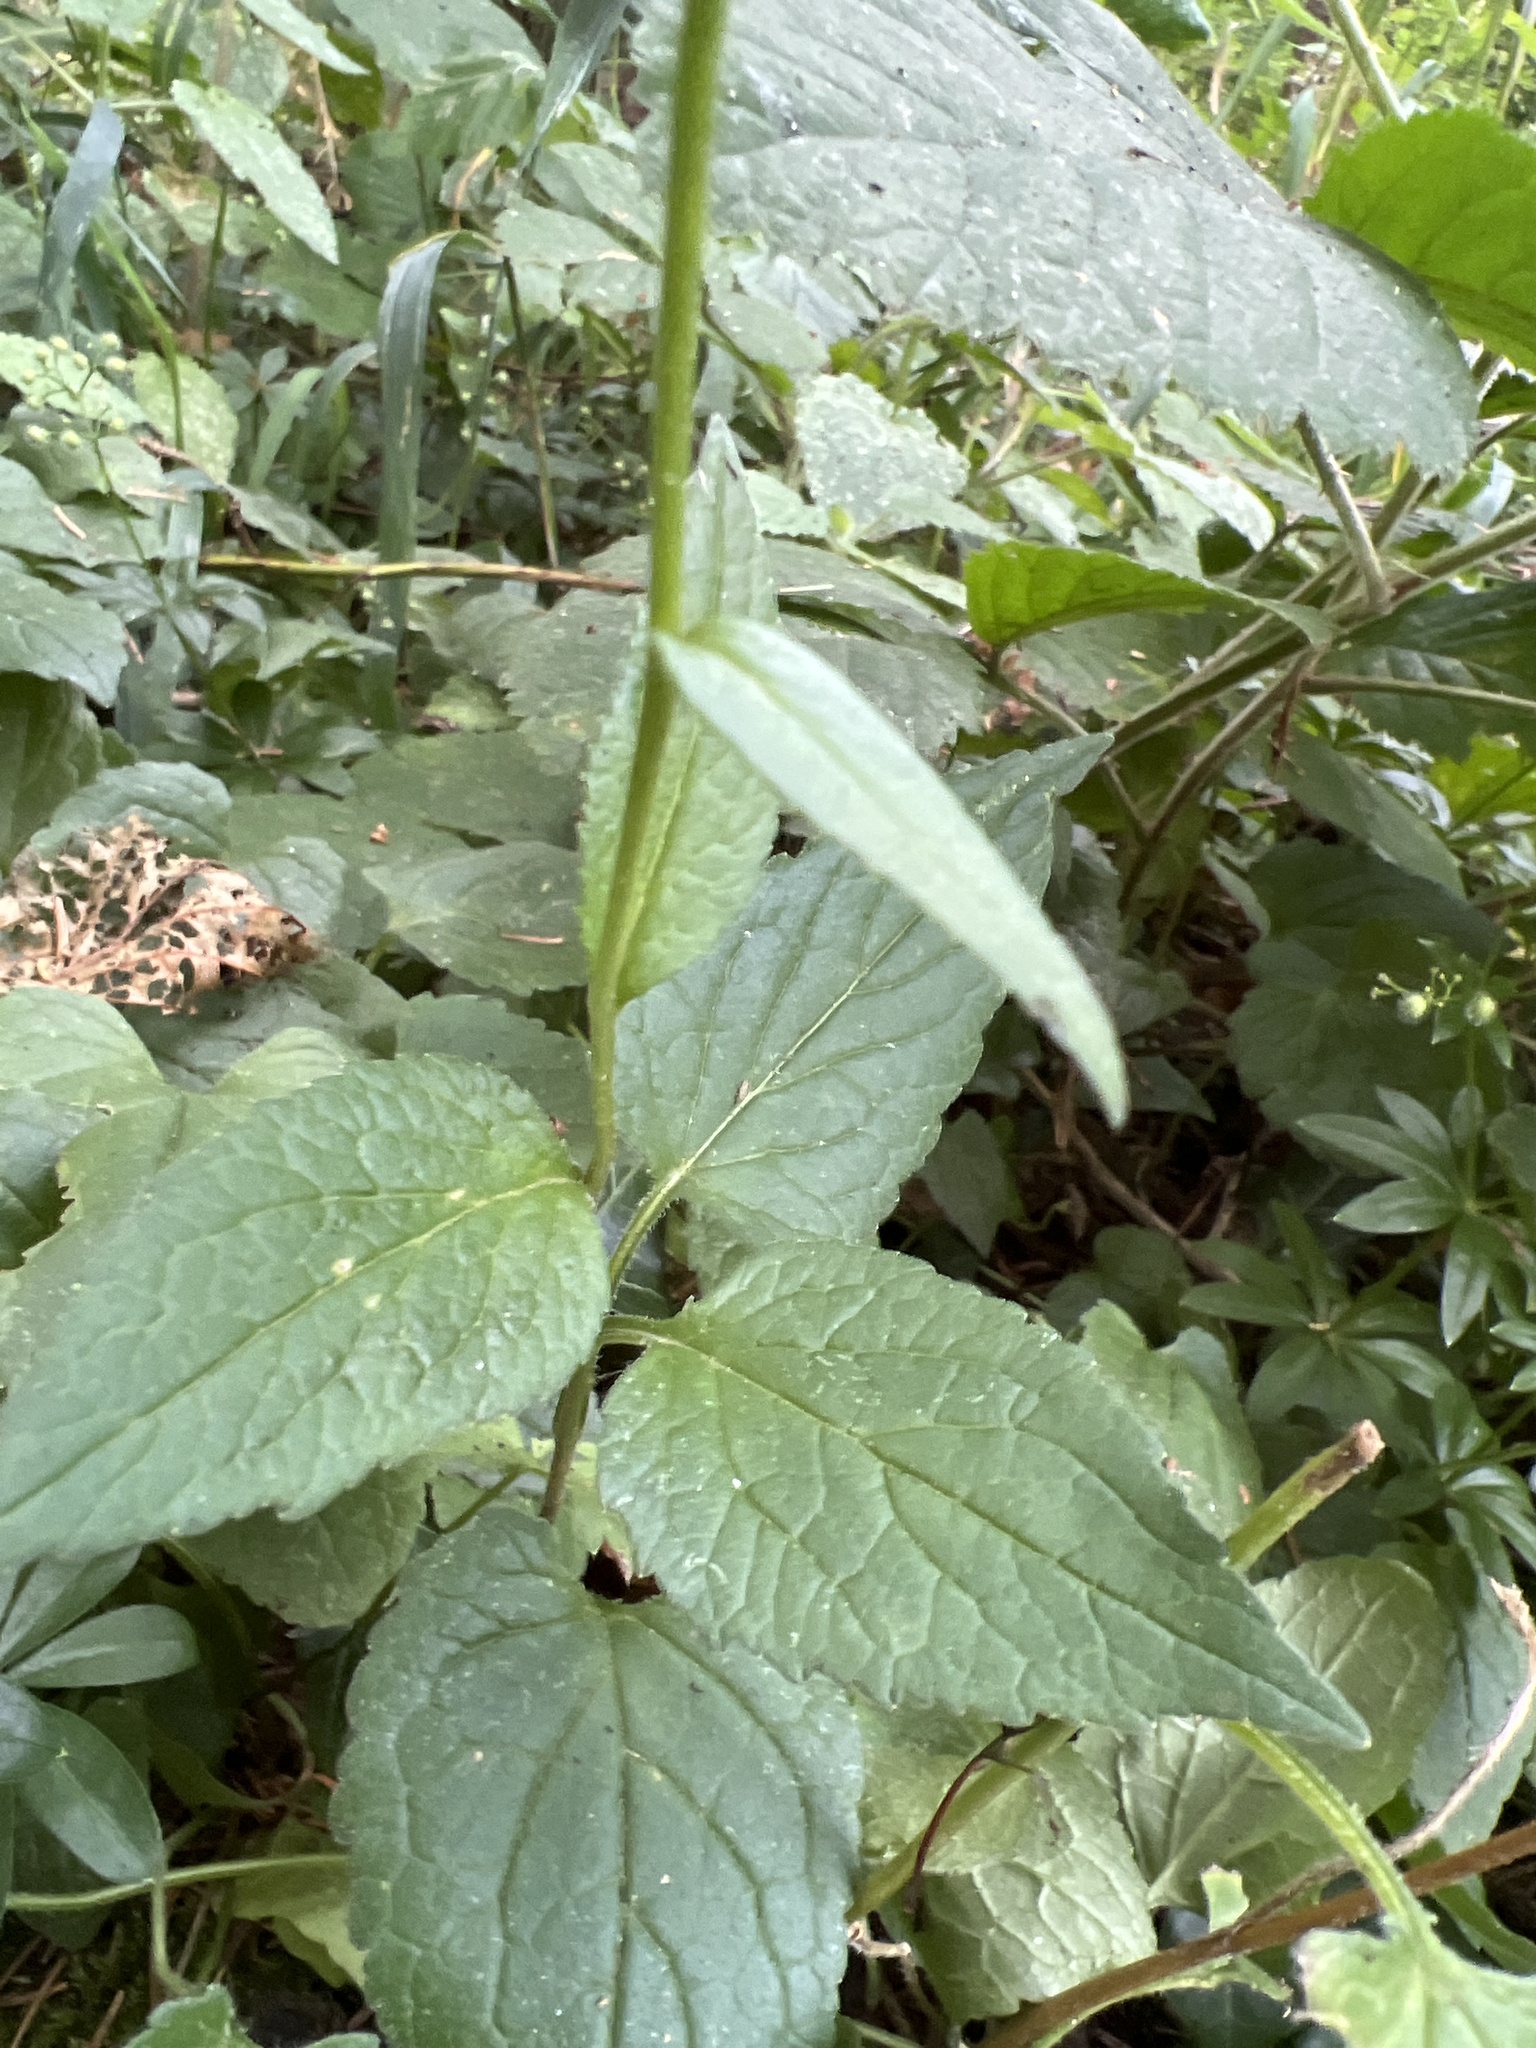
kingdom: Plantae
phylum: Tracheophyta
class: Magnoliopsida
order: Asterales
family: Campanulaceae
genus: Campanula
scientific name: Campanula rapunculoides
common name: Creeping bellflower
